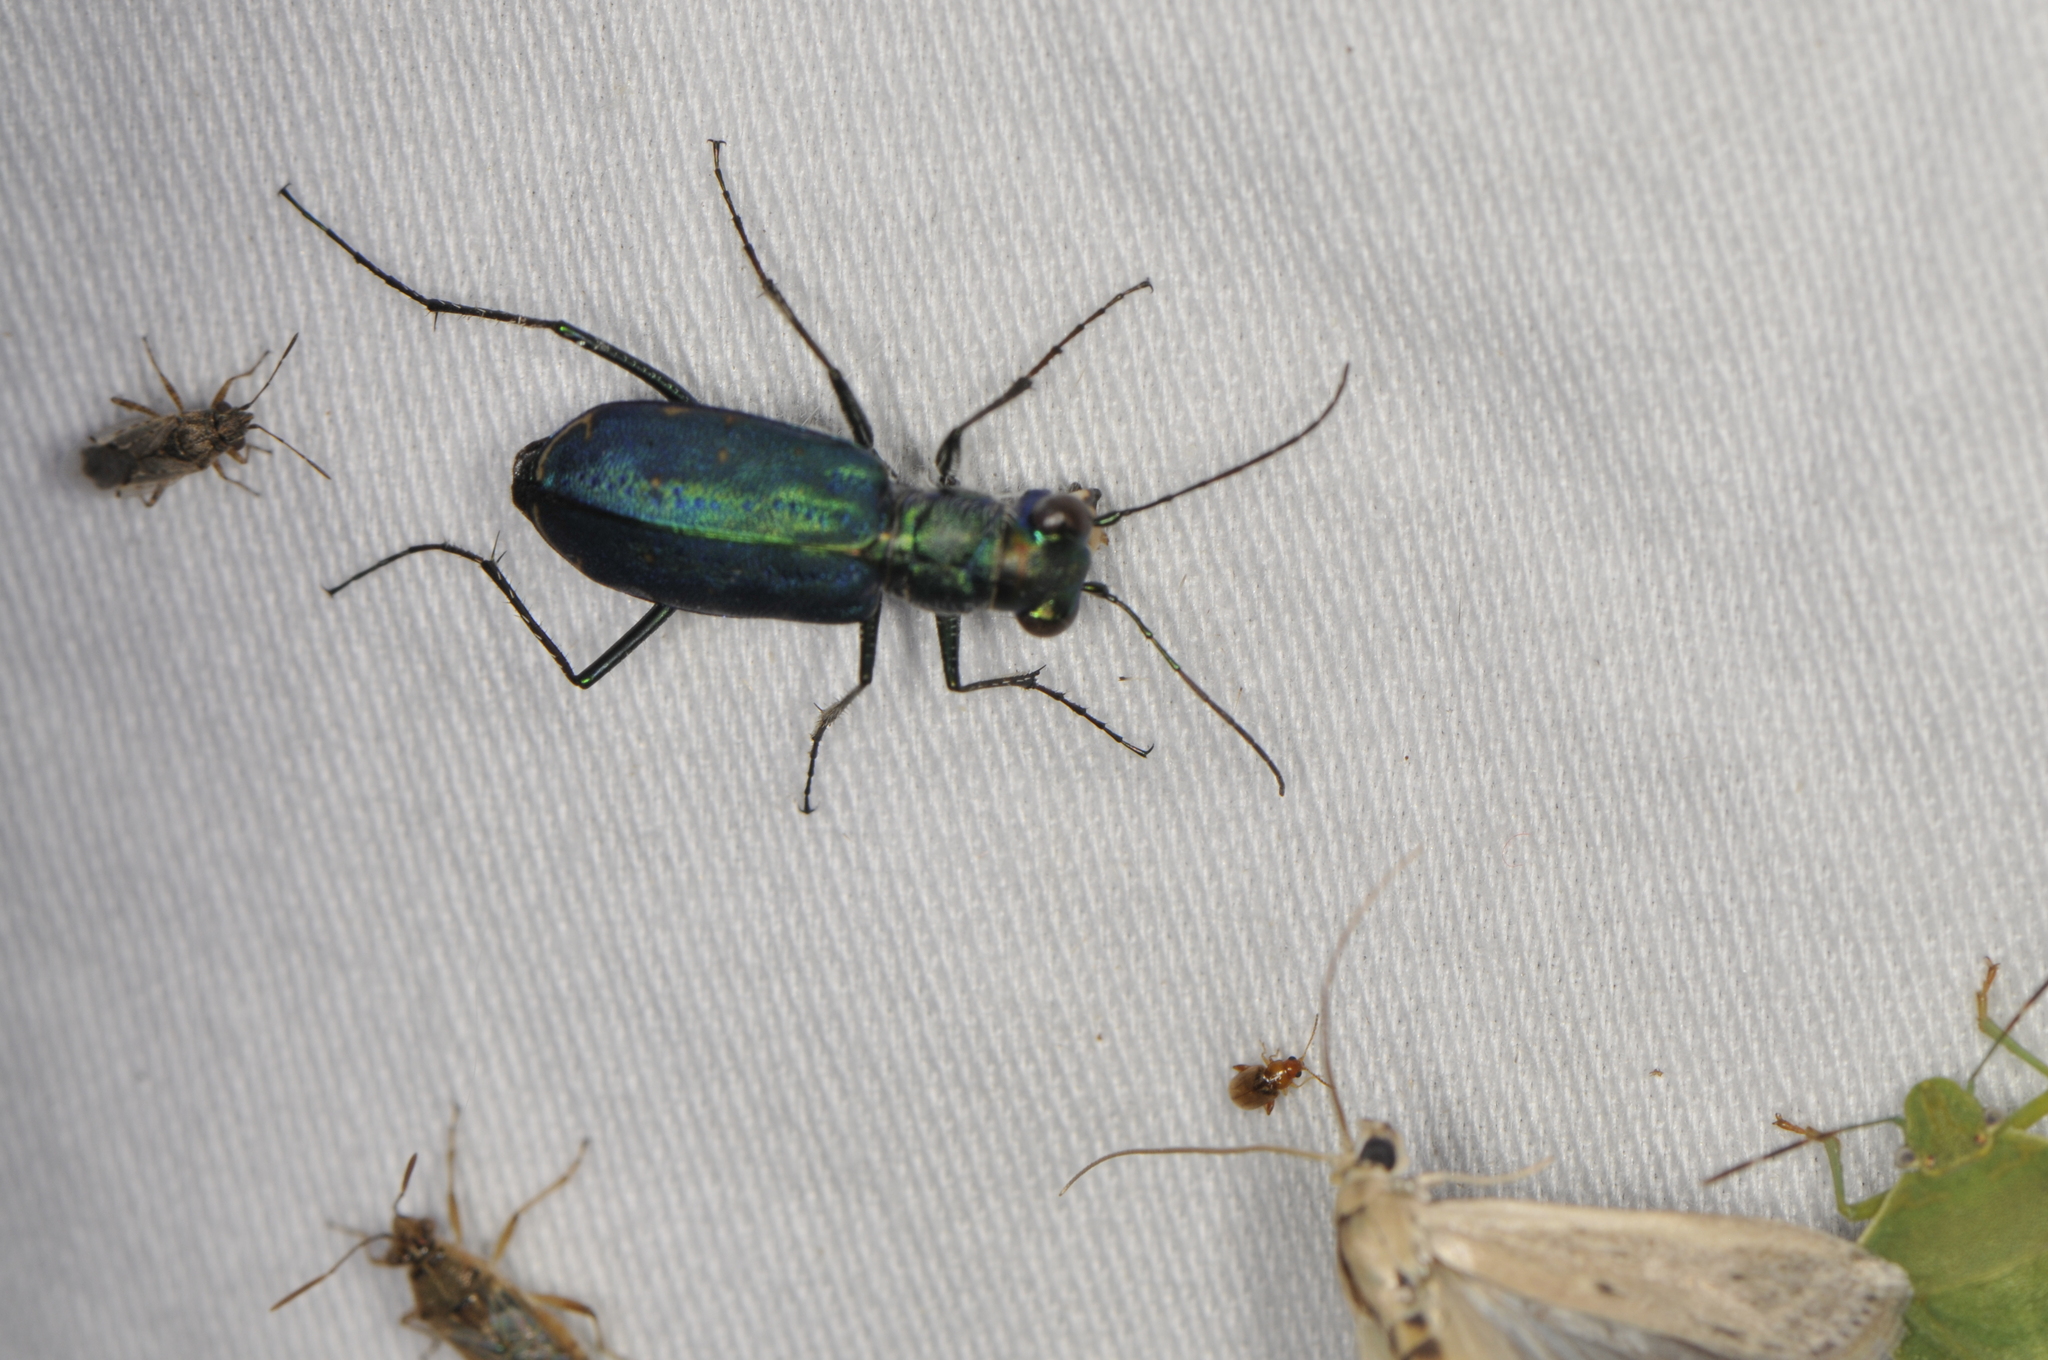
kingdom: Animalia
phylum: Arthropoda
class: Insecta
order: Coleoptera
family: Carabidae
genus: Cicindela
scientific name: Cicindela punctulata
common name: Punctured tiger beetle
